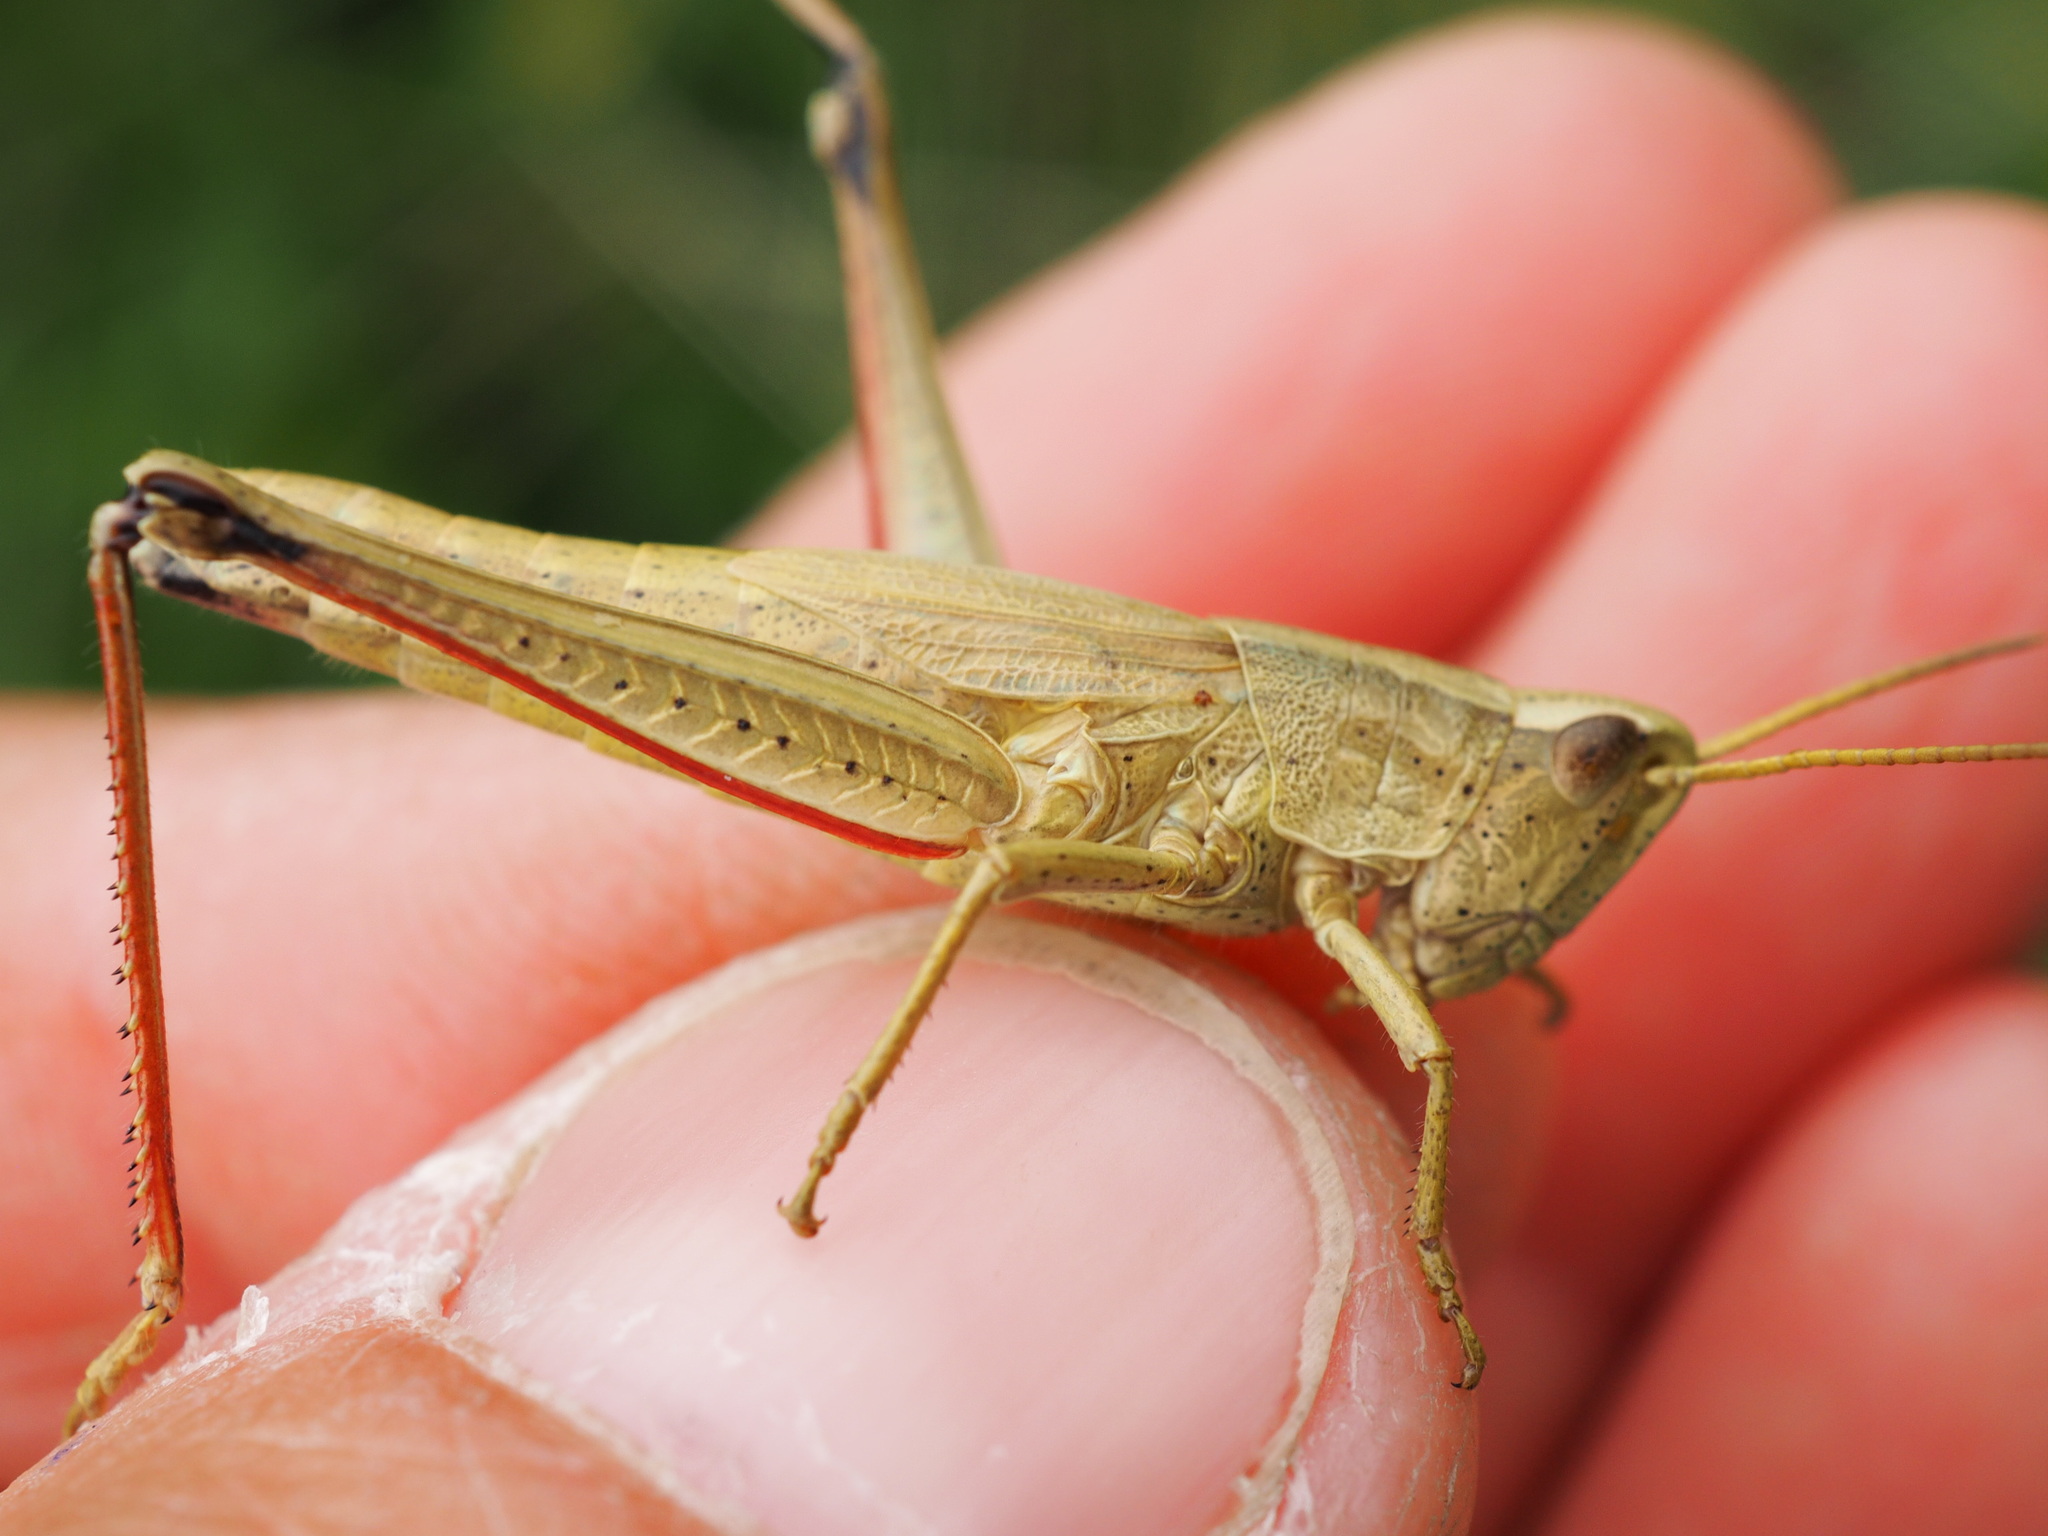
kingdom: Animalia
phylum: Arthropoda
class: Insecta
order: Orthoptera
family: Acrididae
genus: Chrysochraon
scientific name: Chrysochraon dispar
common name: Large gold grasshopper
